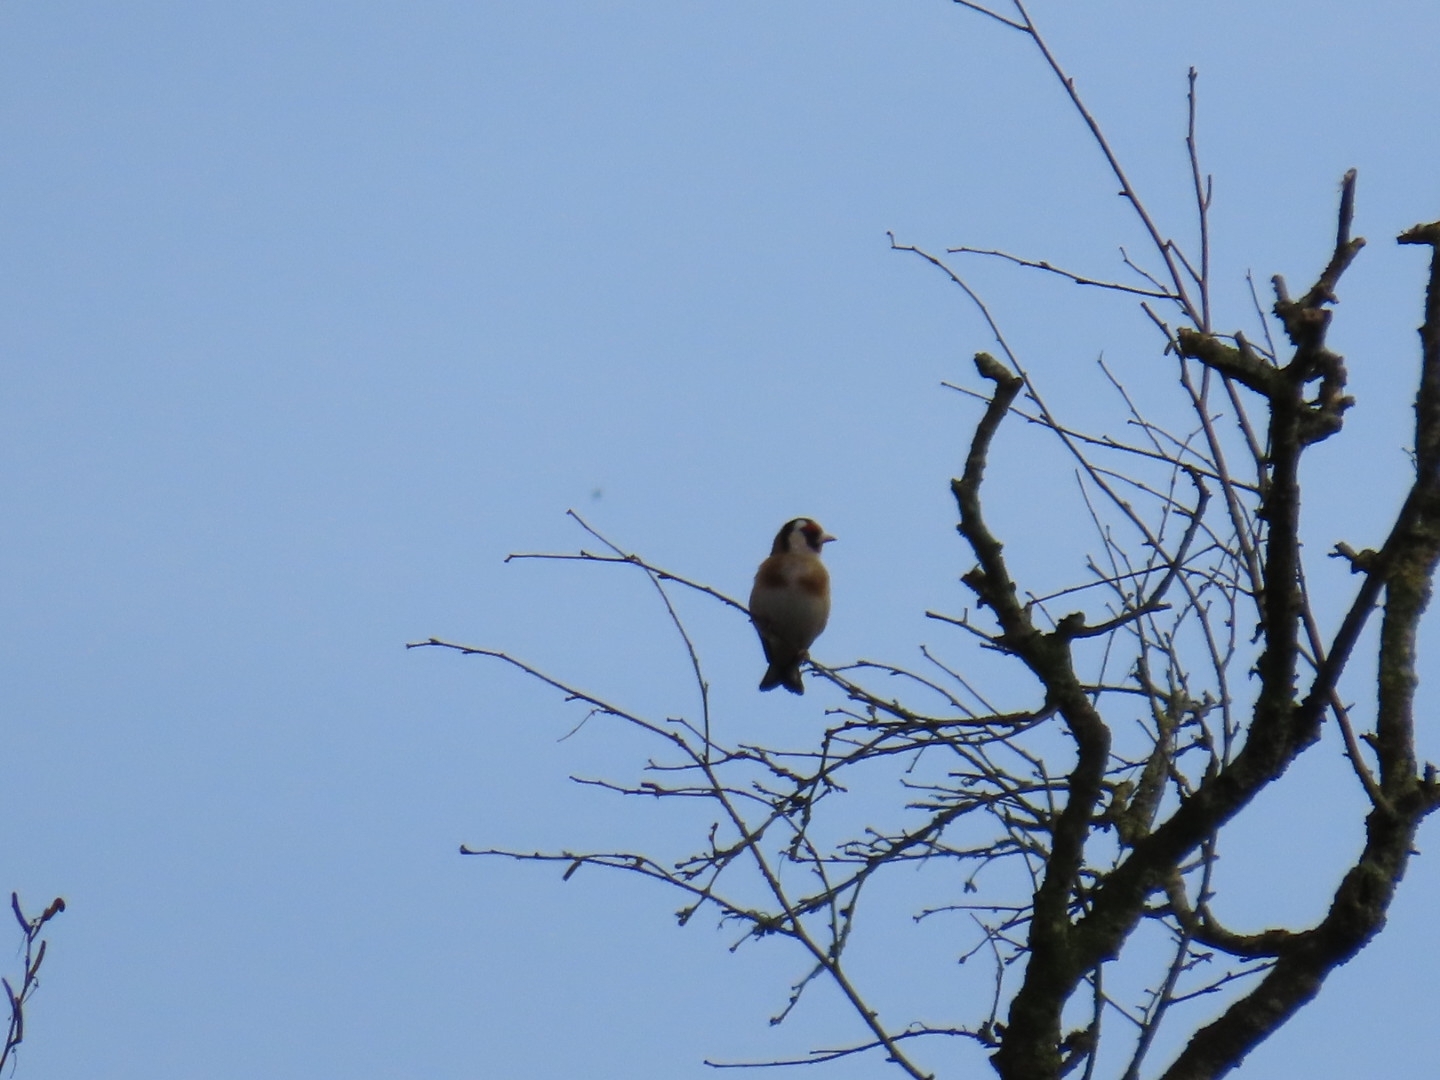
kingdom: Animalia
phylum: Chordata
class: Aves
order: Passeriformes
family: Fringillidae
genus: Carduelis
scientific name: Carduelis carduelis
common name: European goldfinch
